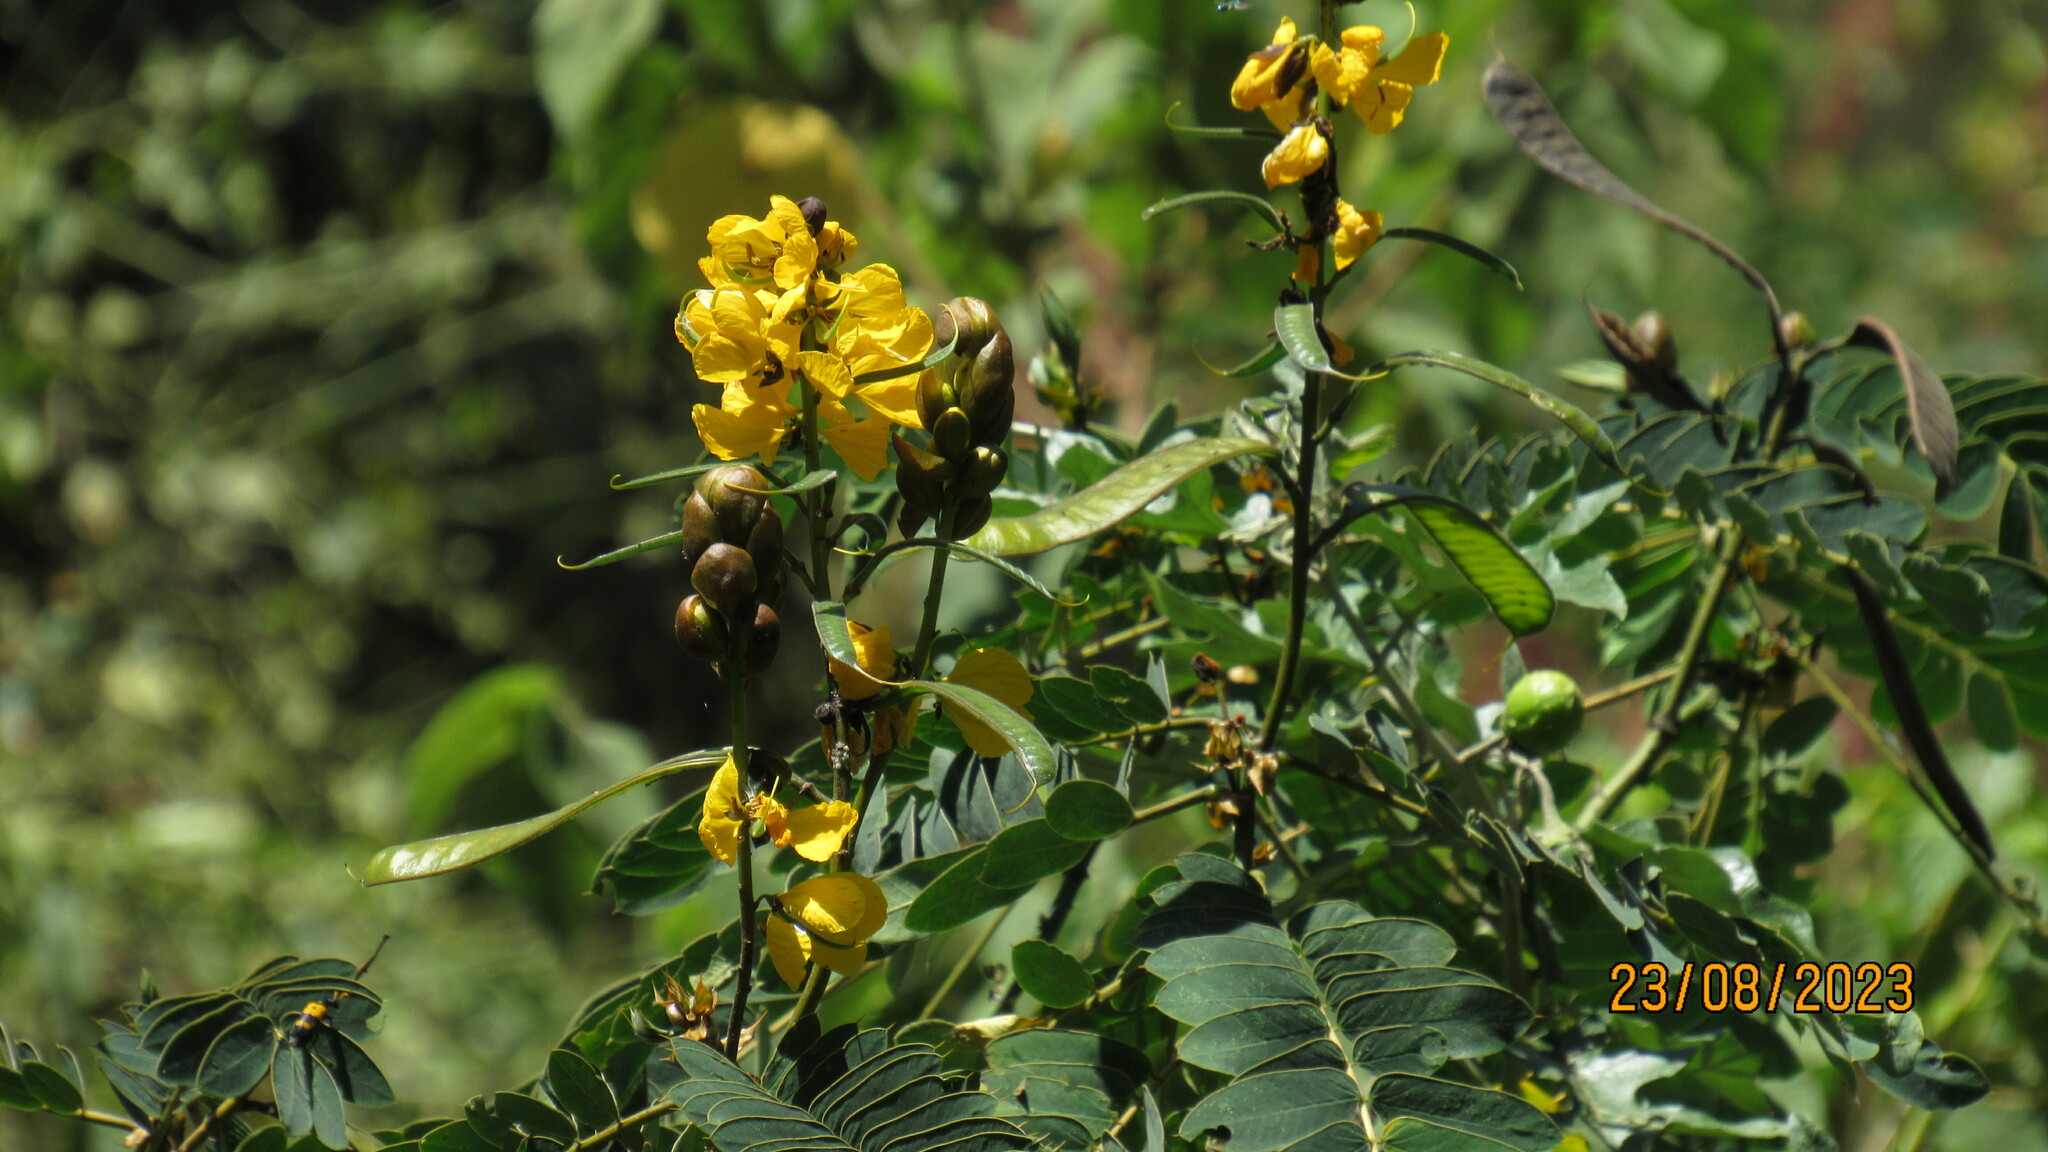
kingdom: Plantae
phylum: Tracheophyta
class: Magnoliopsida
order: Fabales
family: Fabaceae
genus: Senna
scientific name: Senna didymobotrya
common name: African senna
